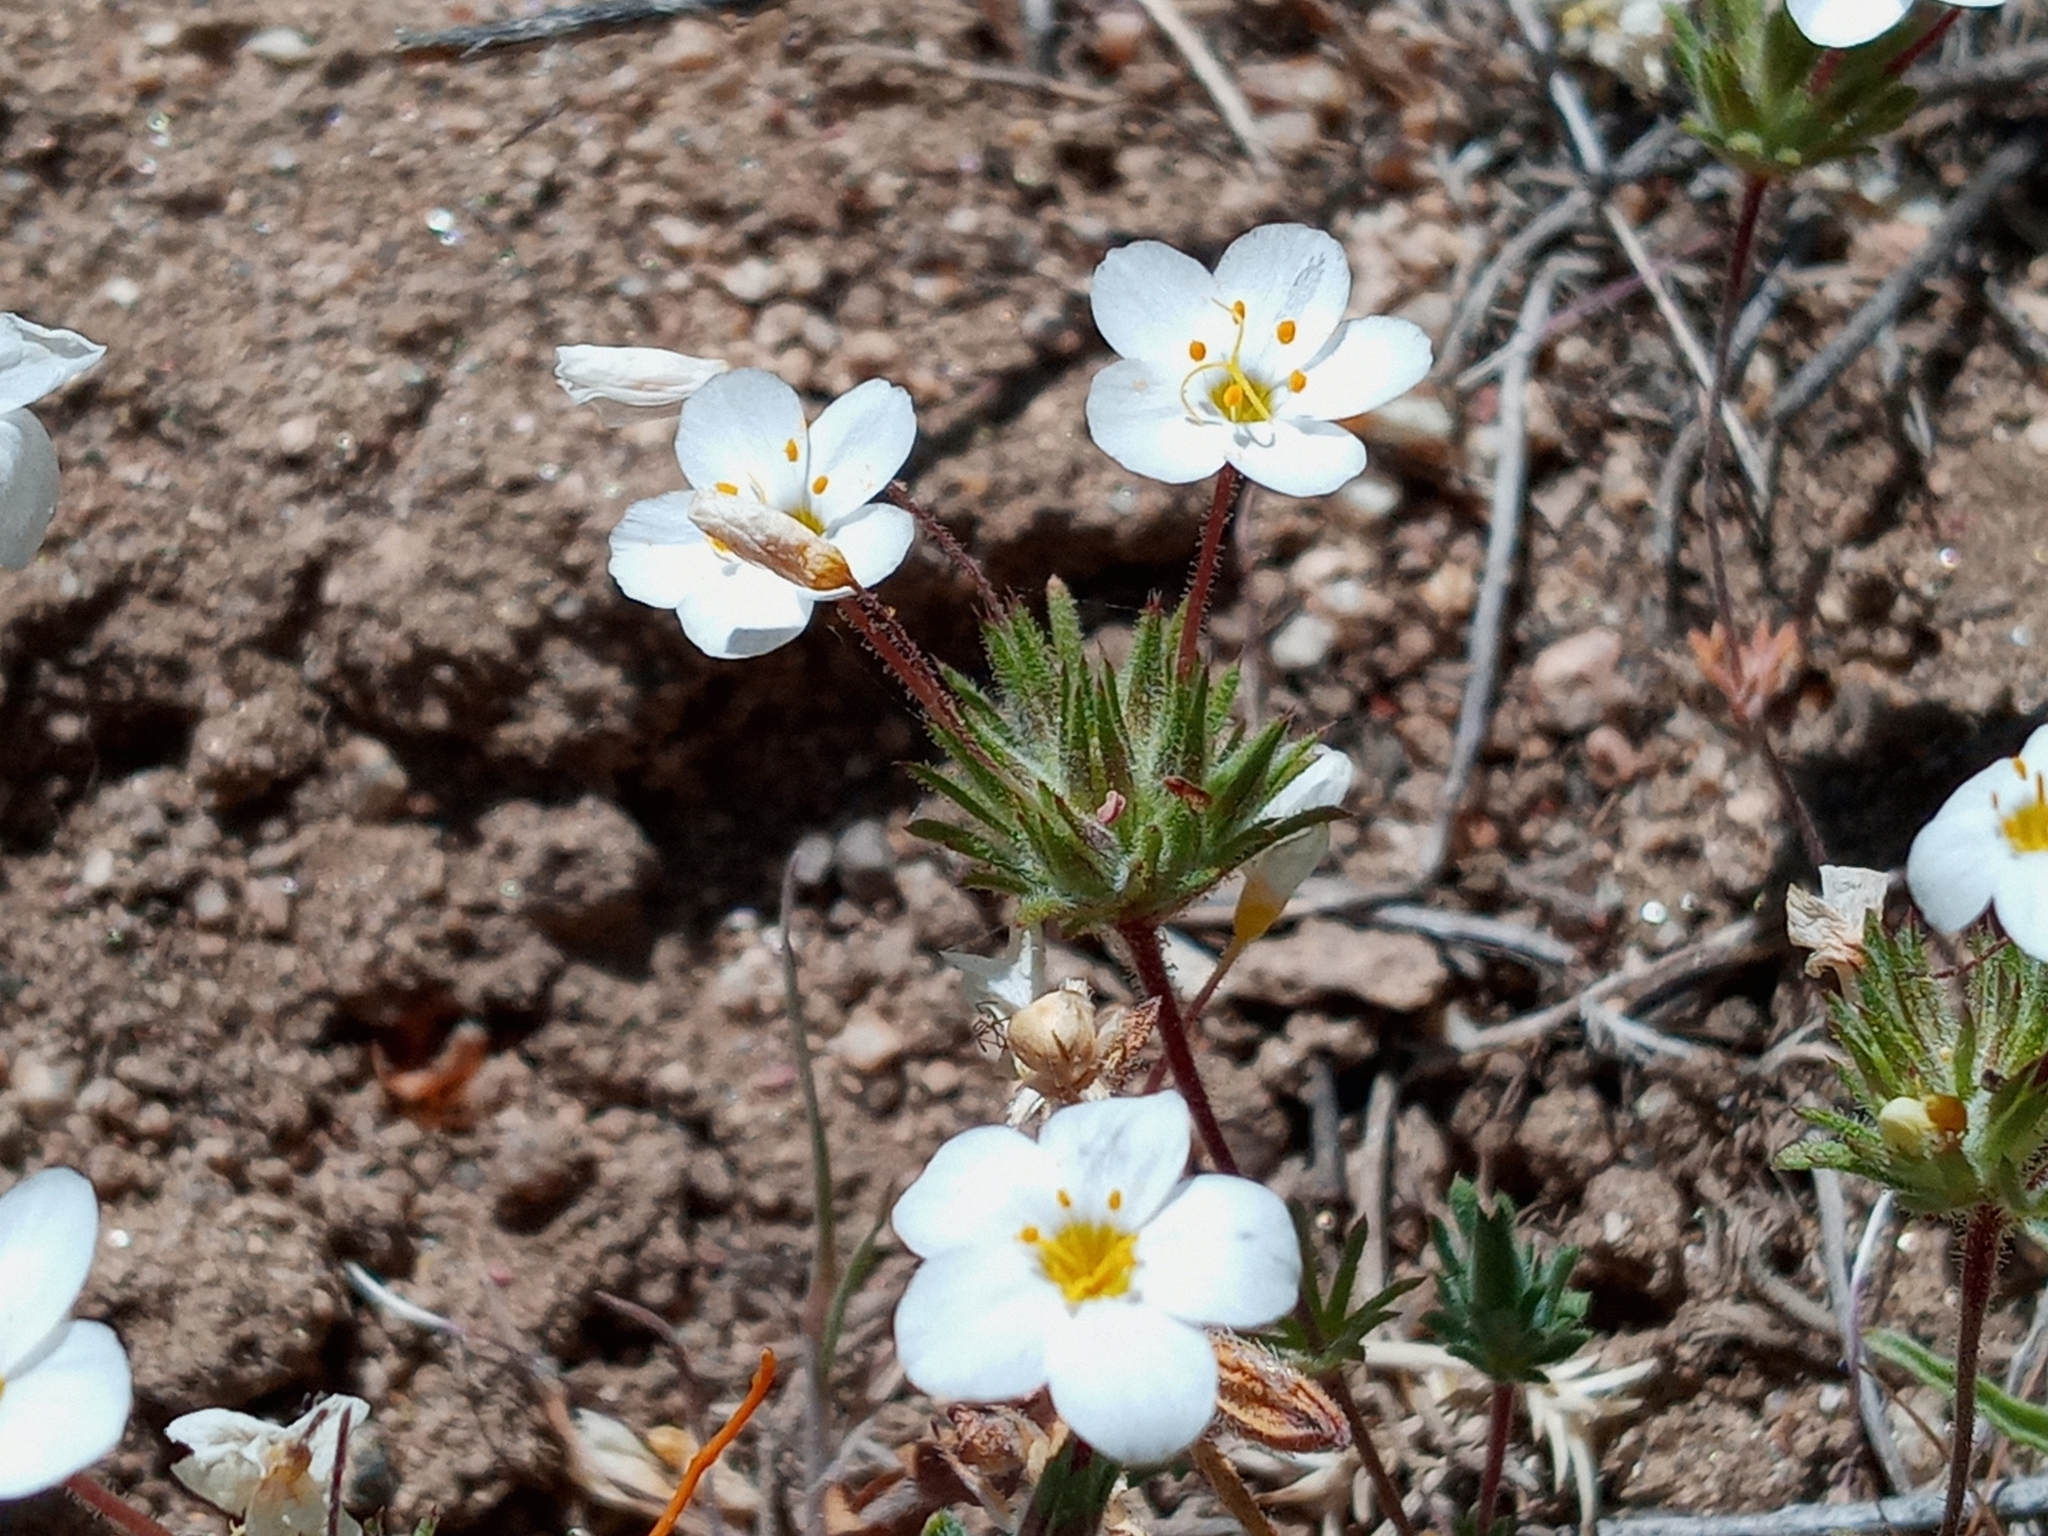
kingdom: Plantae
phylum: Tracheophyta
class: Magnoliopsida
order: Ericales
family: Polemoniaceae
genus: Leptosiphon
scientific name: Leptosiphon parviflorus
